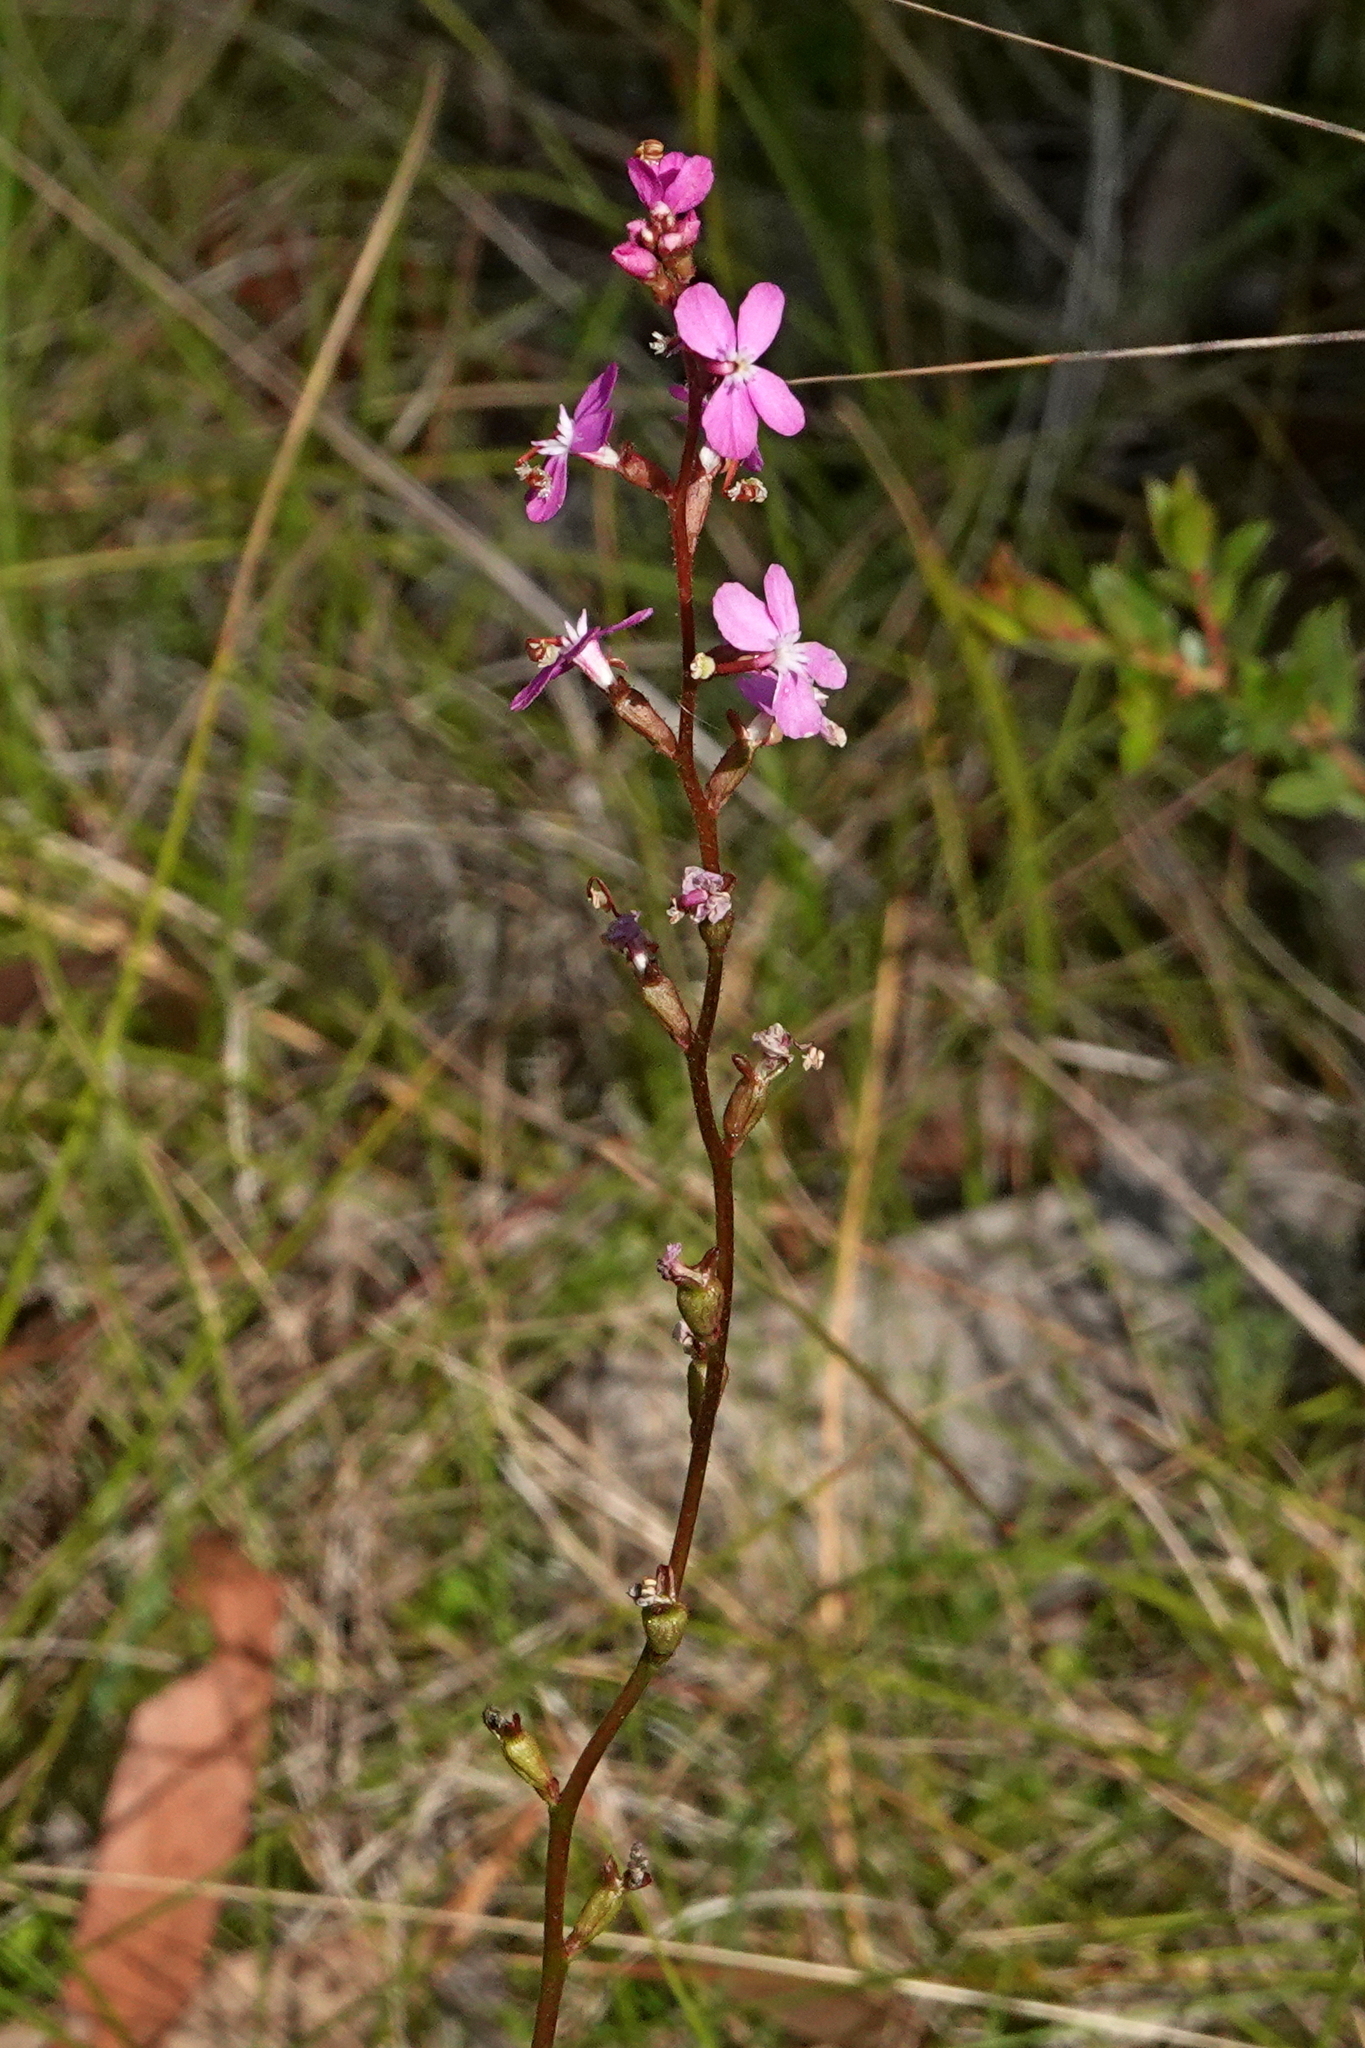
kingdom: Plantae
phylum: Tracheophyta
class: Magnoliopsida
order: Asterales
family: Stylidiaceae
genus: Stylidium
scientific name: Stylidium montanum
